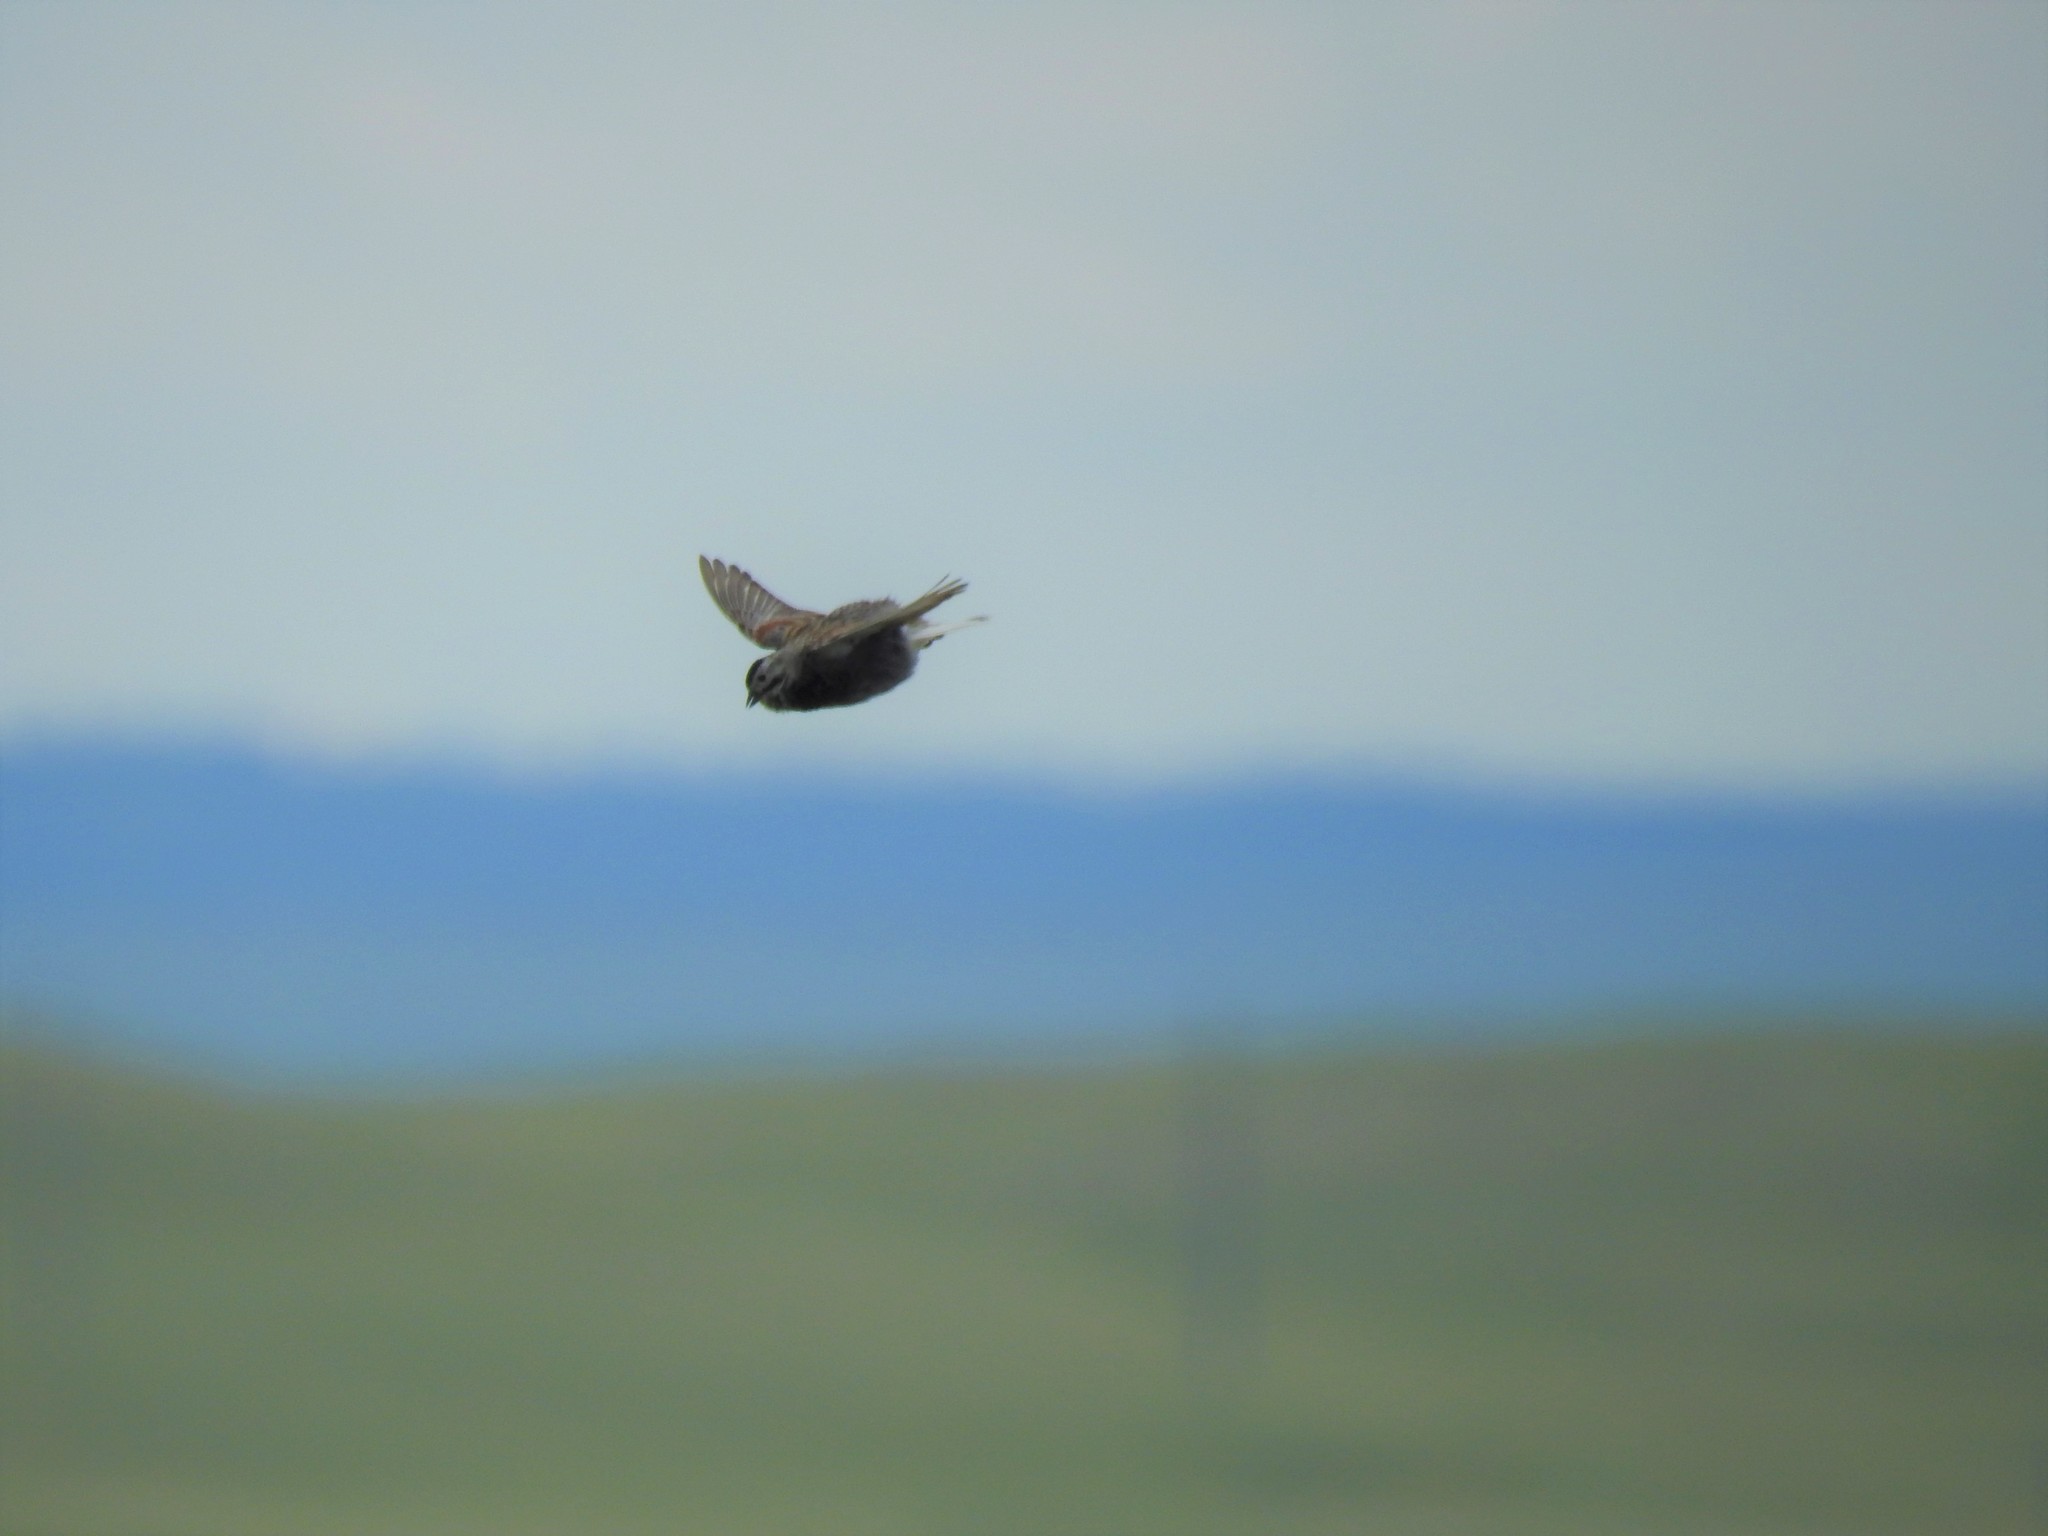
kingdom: Animalia
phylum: Chordata
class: Aves
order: Passeriformes
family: Calcariidae
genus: Rhynchophanes
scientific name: Rhynchophanes mccownii
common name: Mccown's longspur
